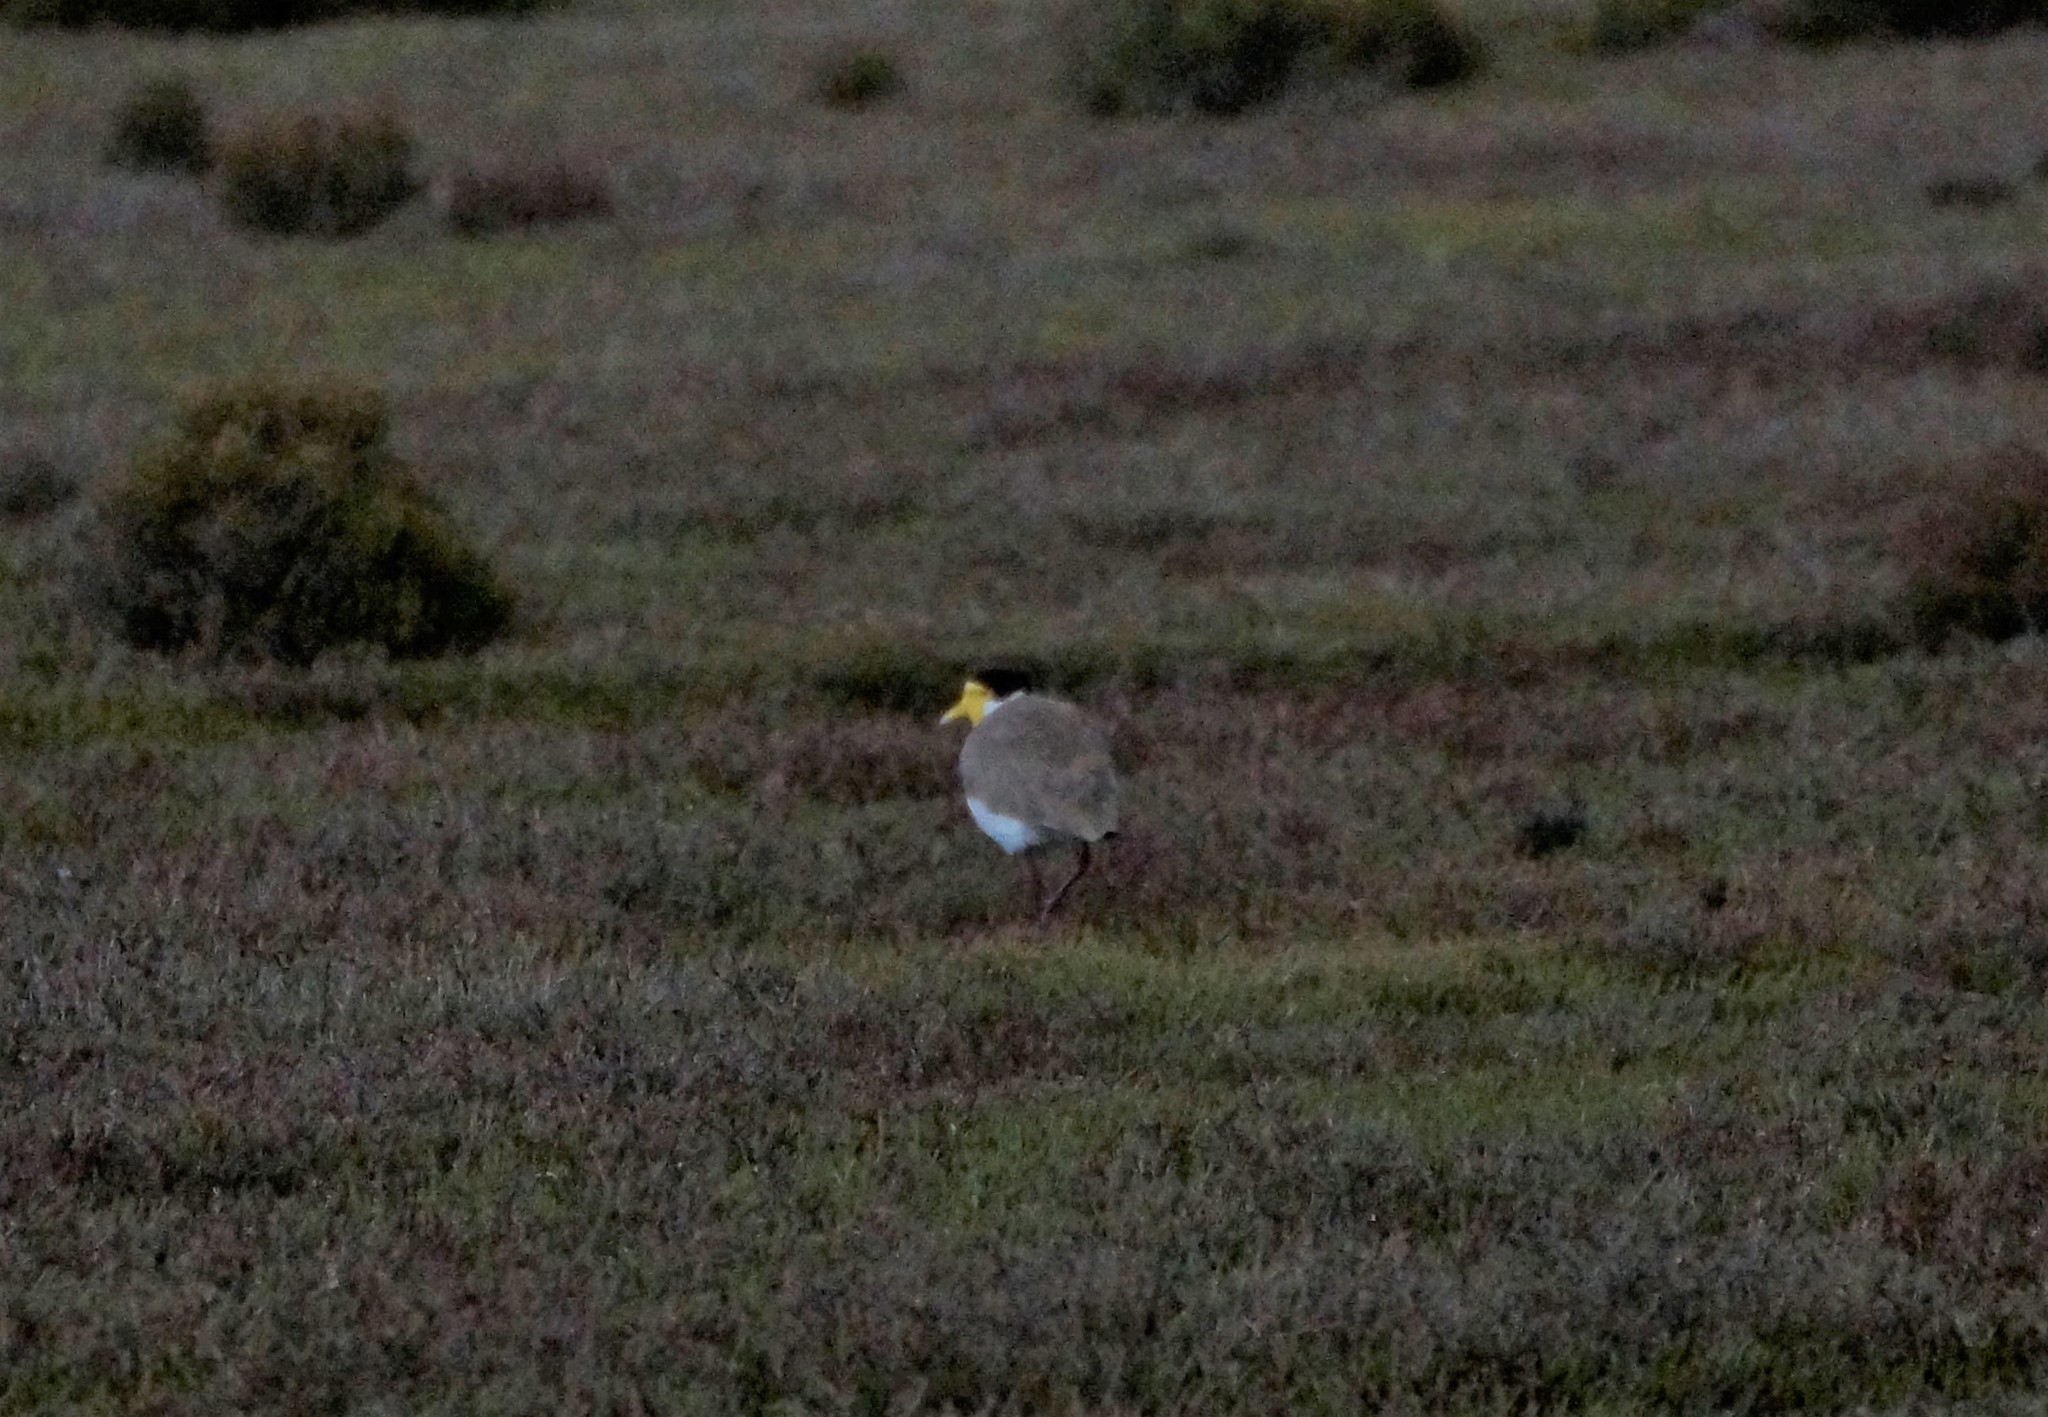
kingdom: Animalia
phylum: Chordata
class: Aves
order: Charadriiformes
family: Charadriidae
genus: Vanellus
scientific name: Vanellus miles
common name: Masked lapwing
